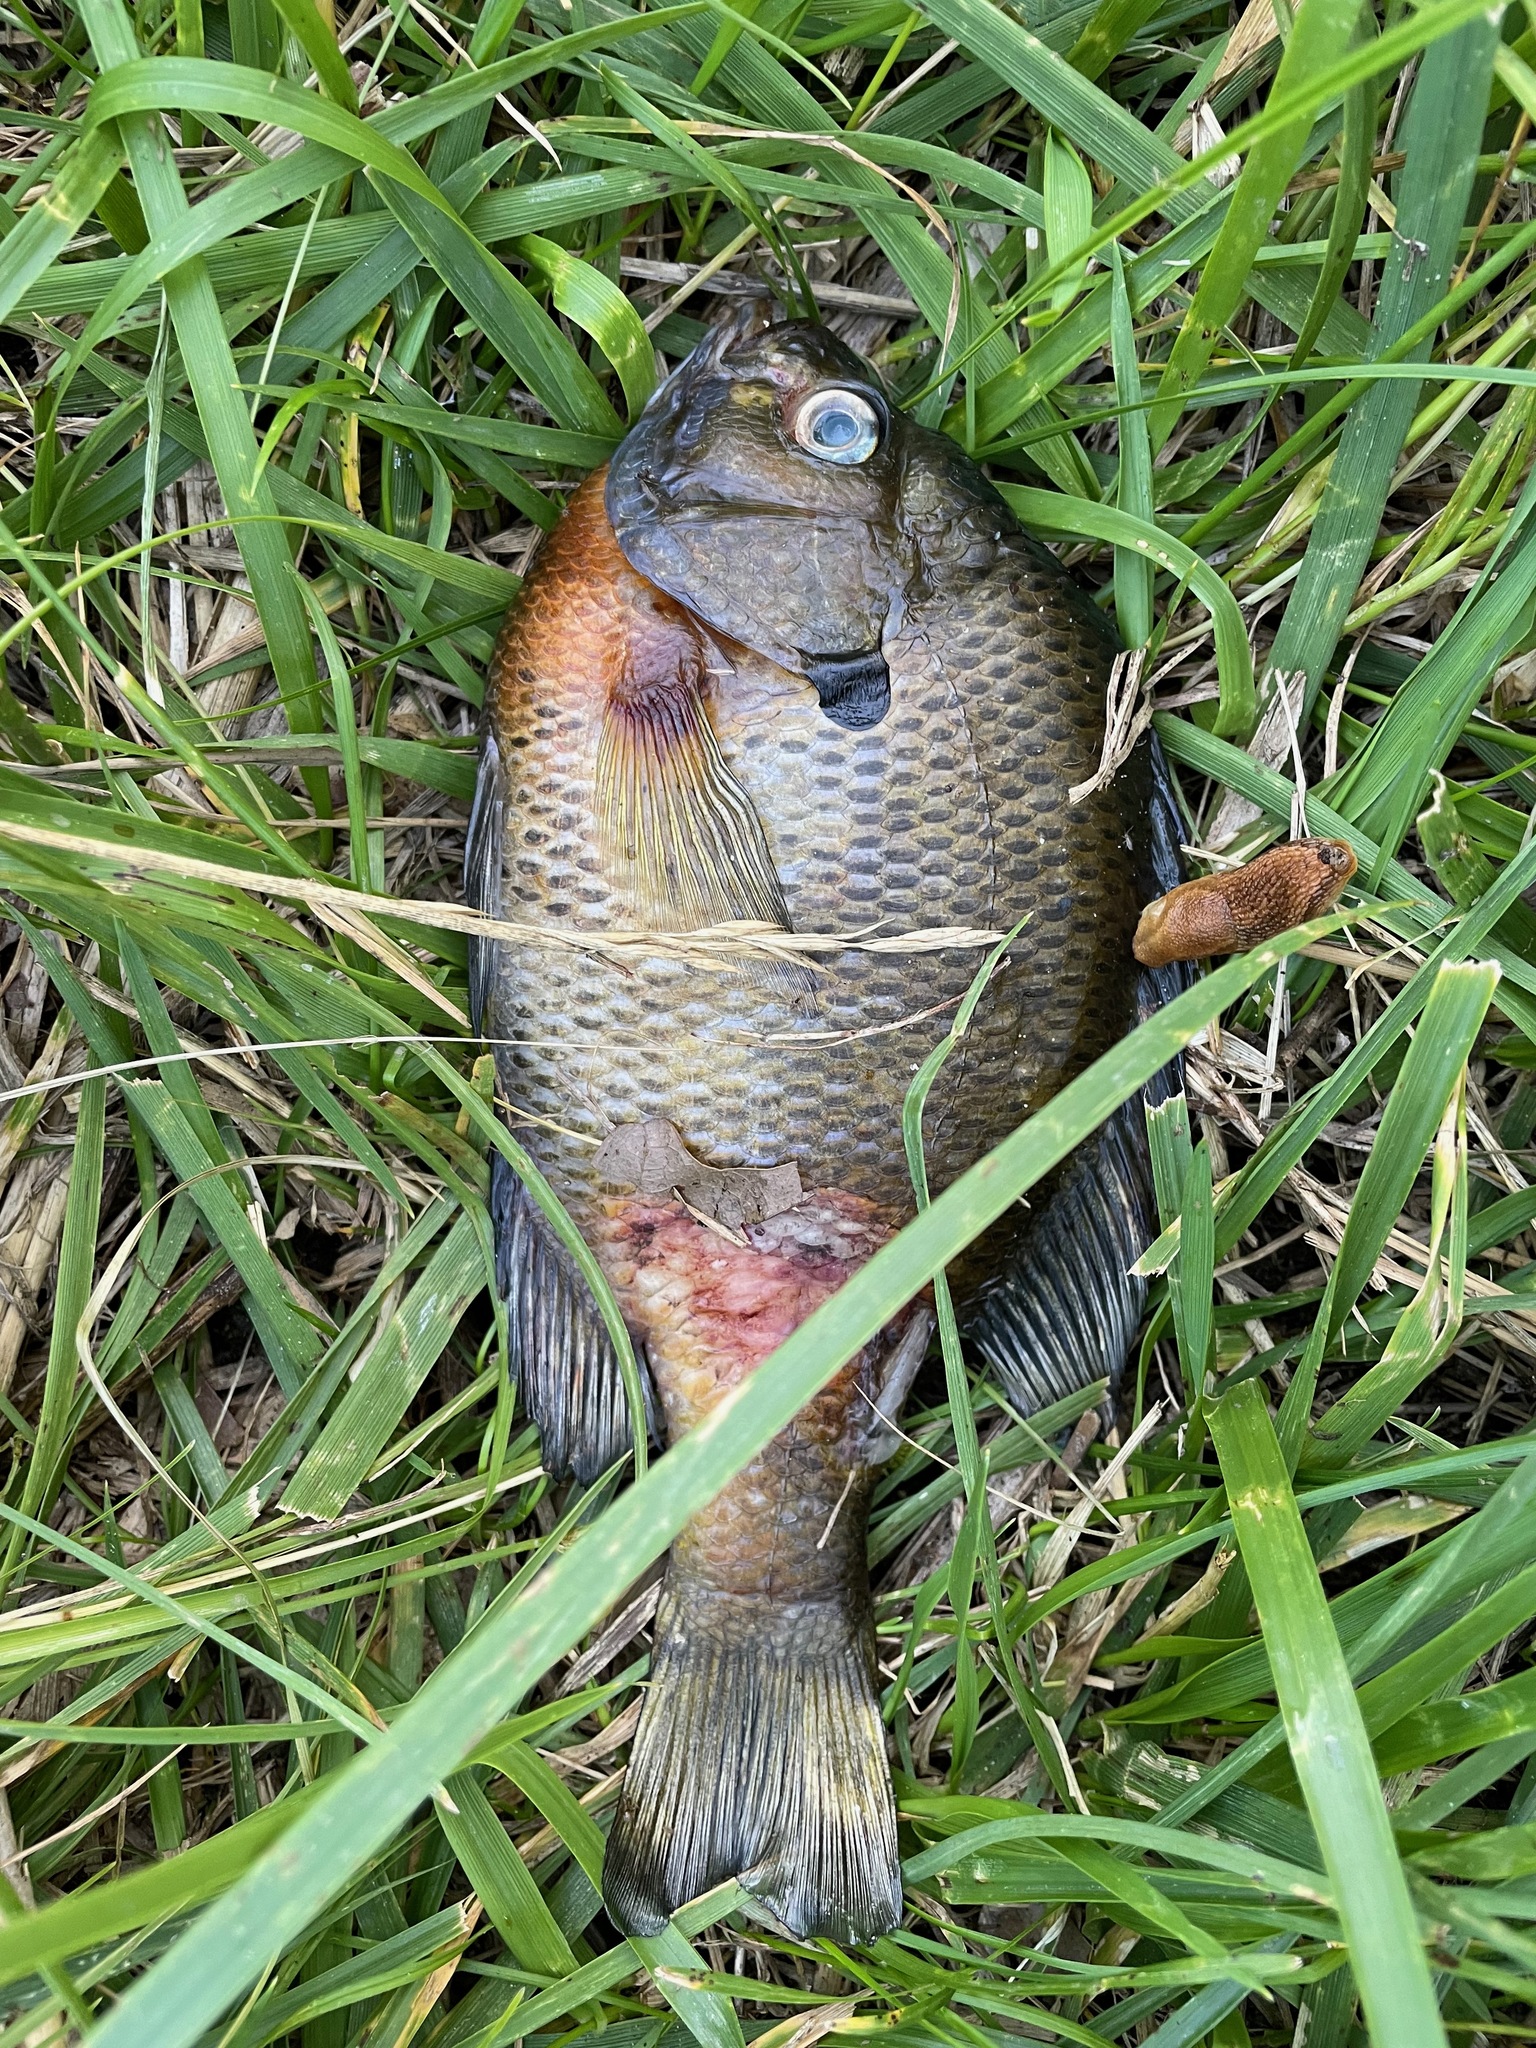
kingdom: Animalia
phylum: Chordata
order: Perciformes
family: Centrarchidae
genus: Lepomis
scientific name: Lepomis macrochirus
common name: Bluegill
